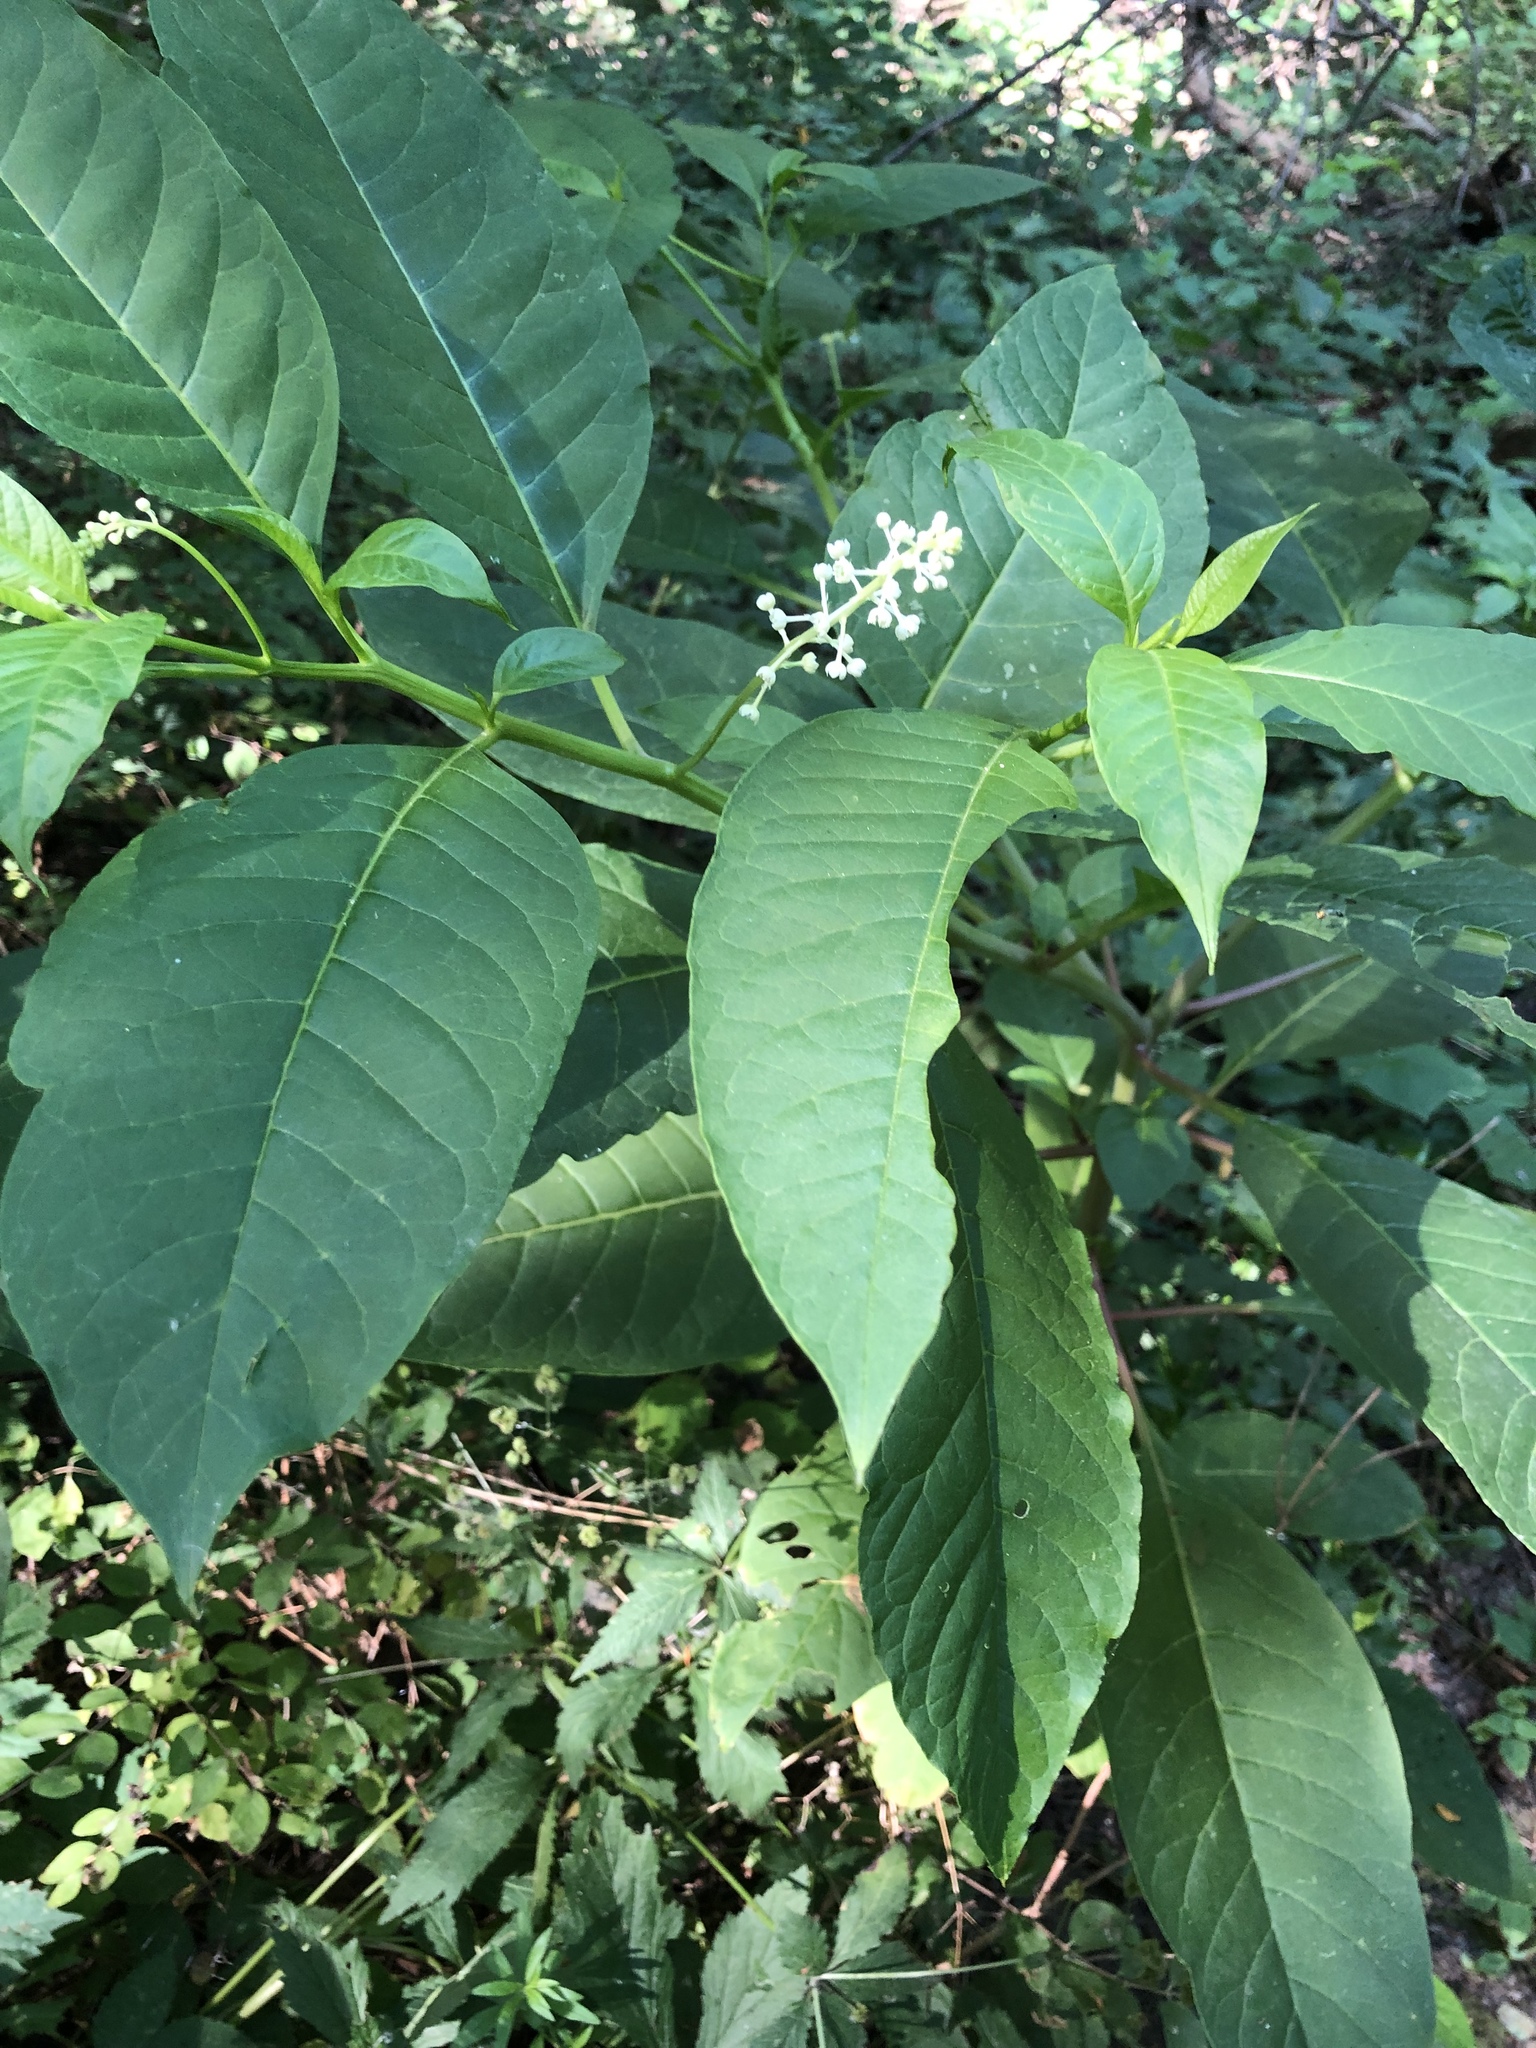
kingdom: Plantae
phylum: Tracheophyta
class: Magnoliopsida
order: Caryophyllales
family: Phytolaccaceae
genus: Phytolacca
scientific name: Phytolacca americana
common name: American pokeweed
